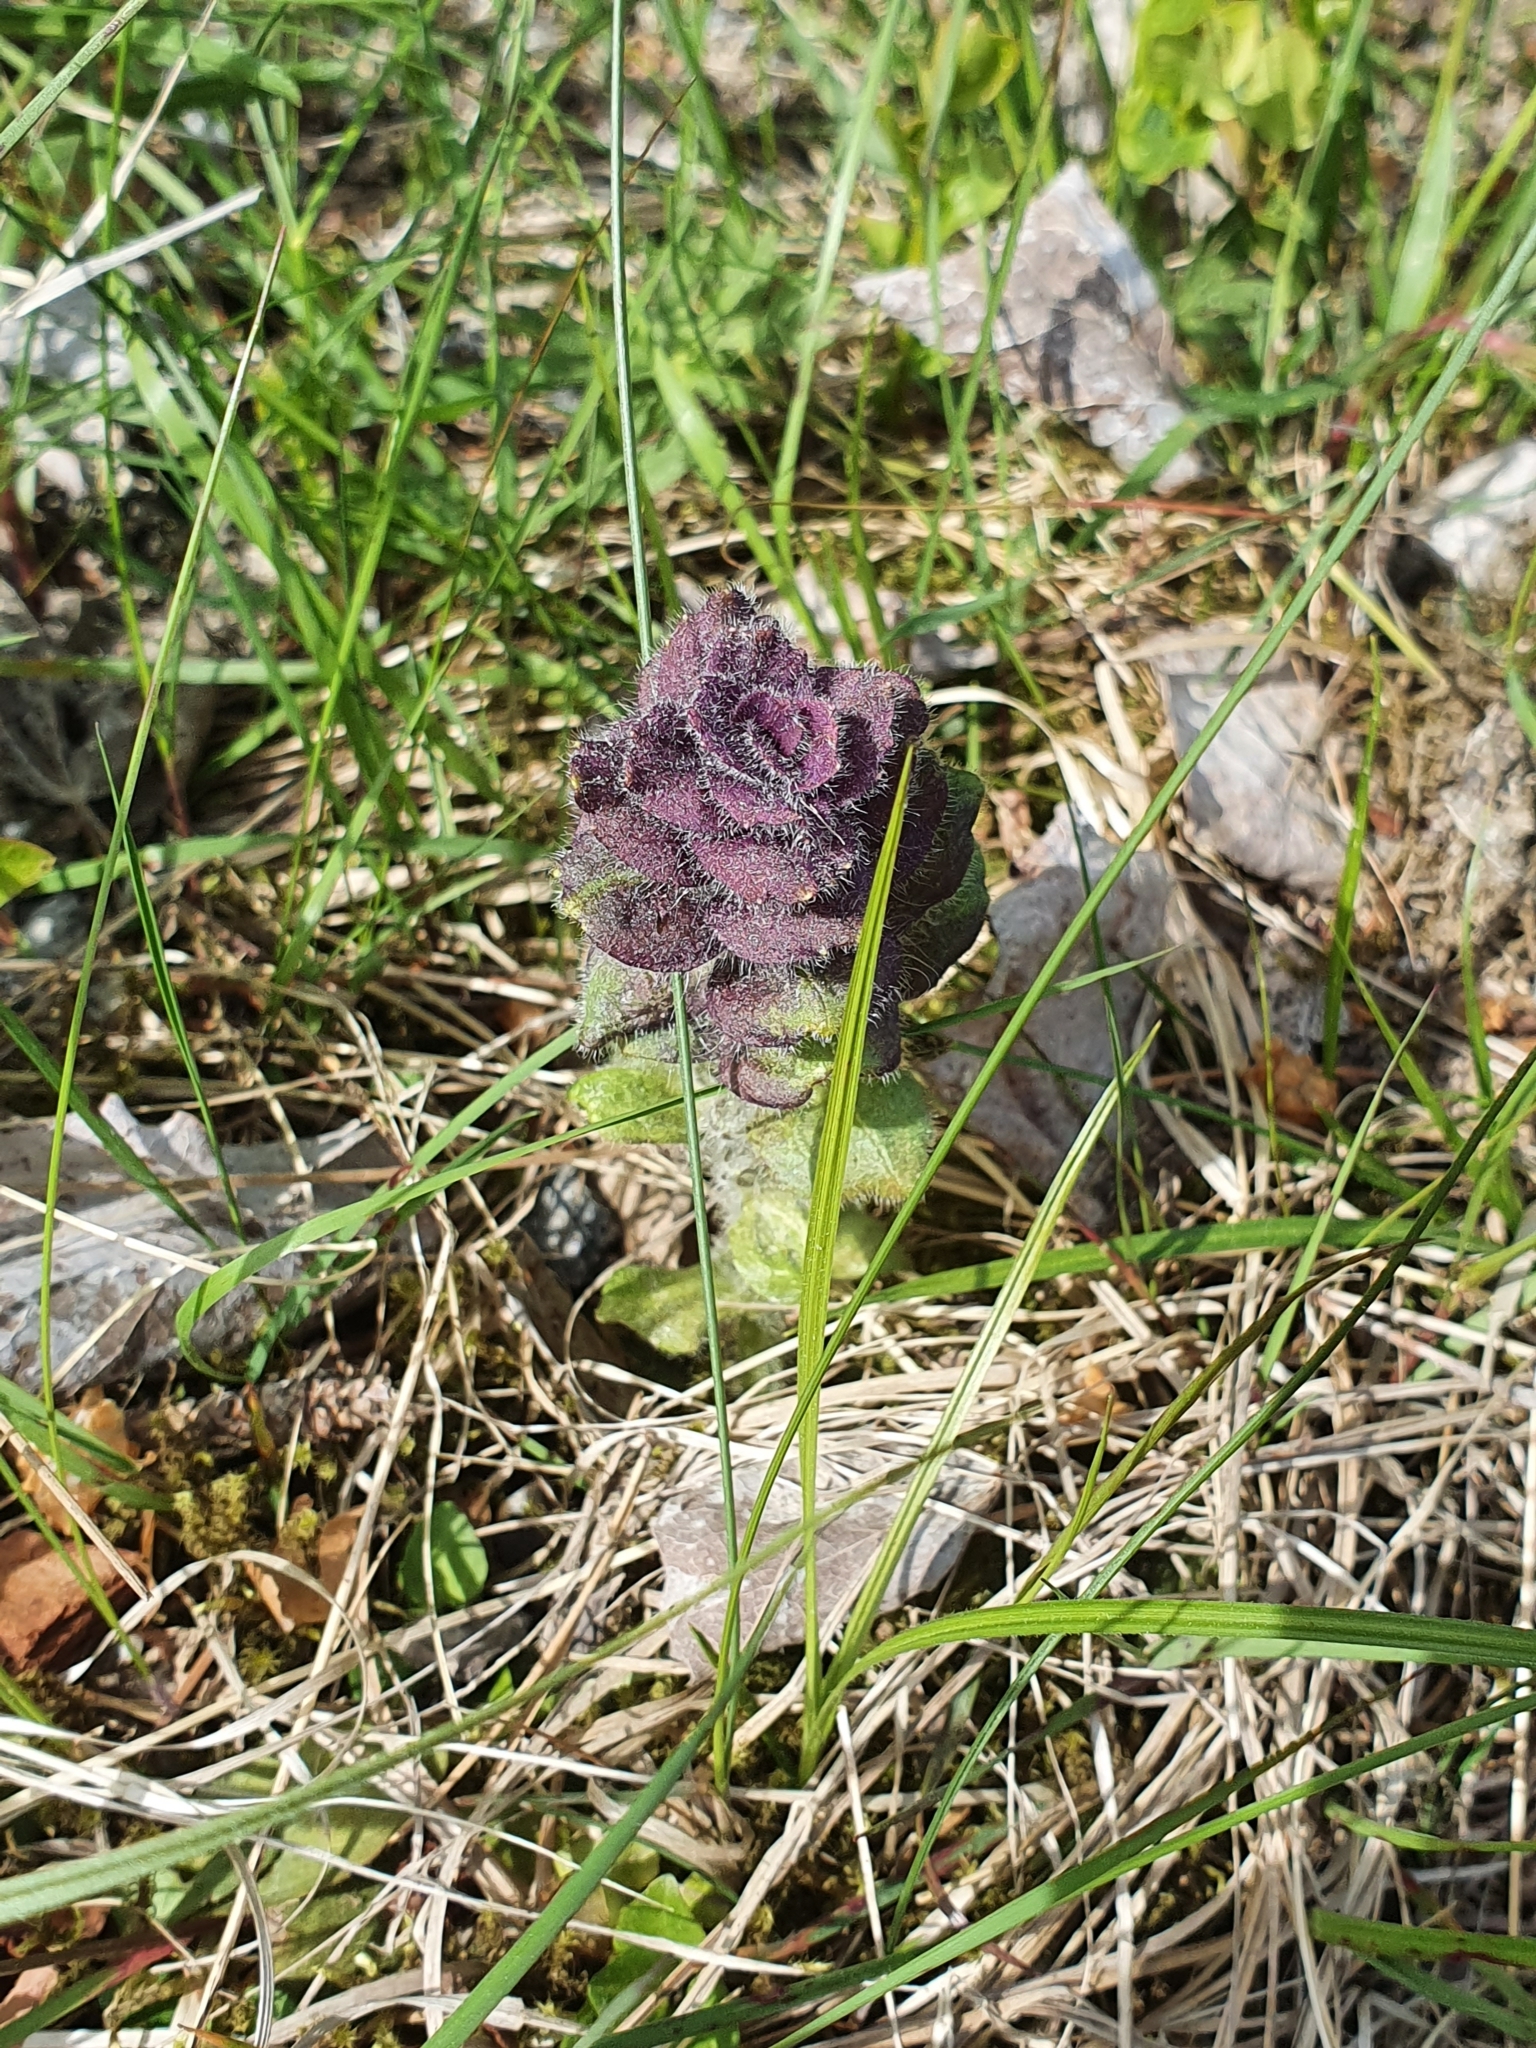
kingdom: Plantae
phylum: Tracheophyta
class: Magnoliopsida
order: Lamiales
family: Lamiaceae
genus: Ajuga
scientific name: Ajuga pyramidalis
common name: Pyramid bugle
